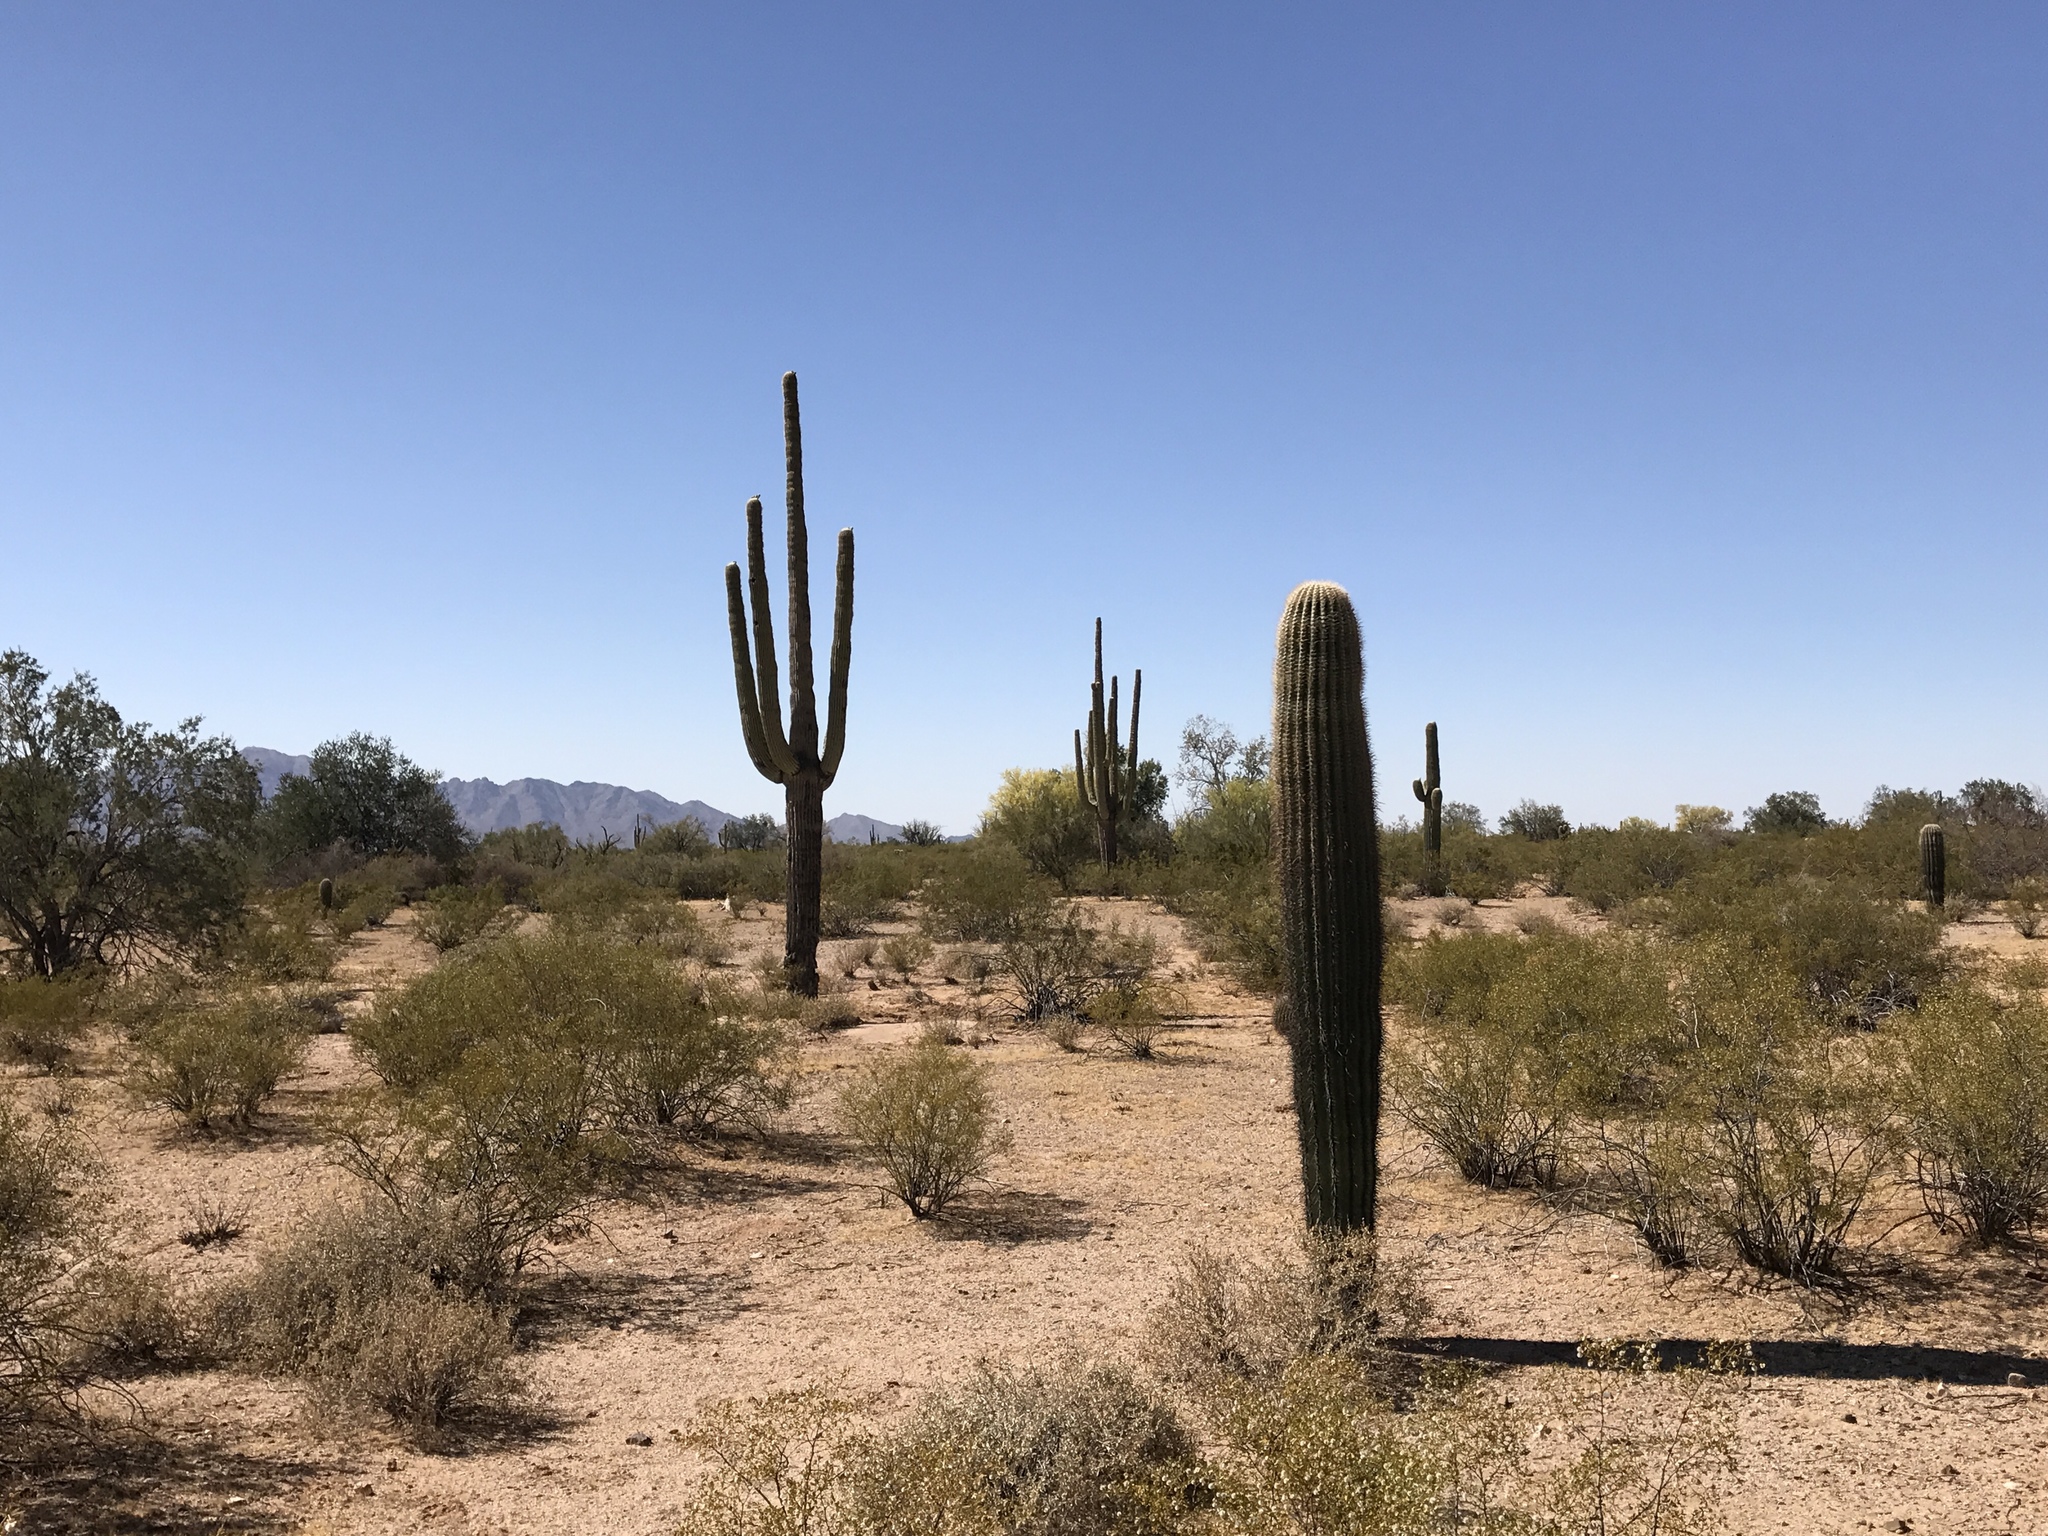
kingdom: Plantae
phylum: Tracheophyta
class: Magnoliopsida
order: Caryophyllales
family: Cactaceae
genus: Carnegiea
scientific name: Carnegiea gigantea
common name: Saguaro
